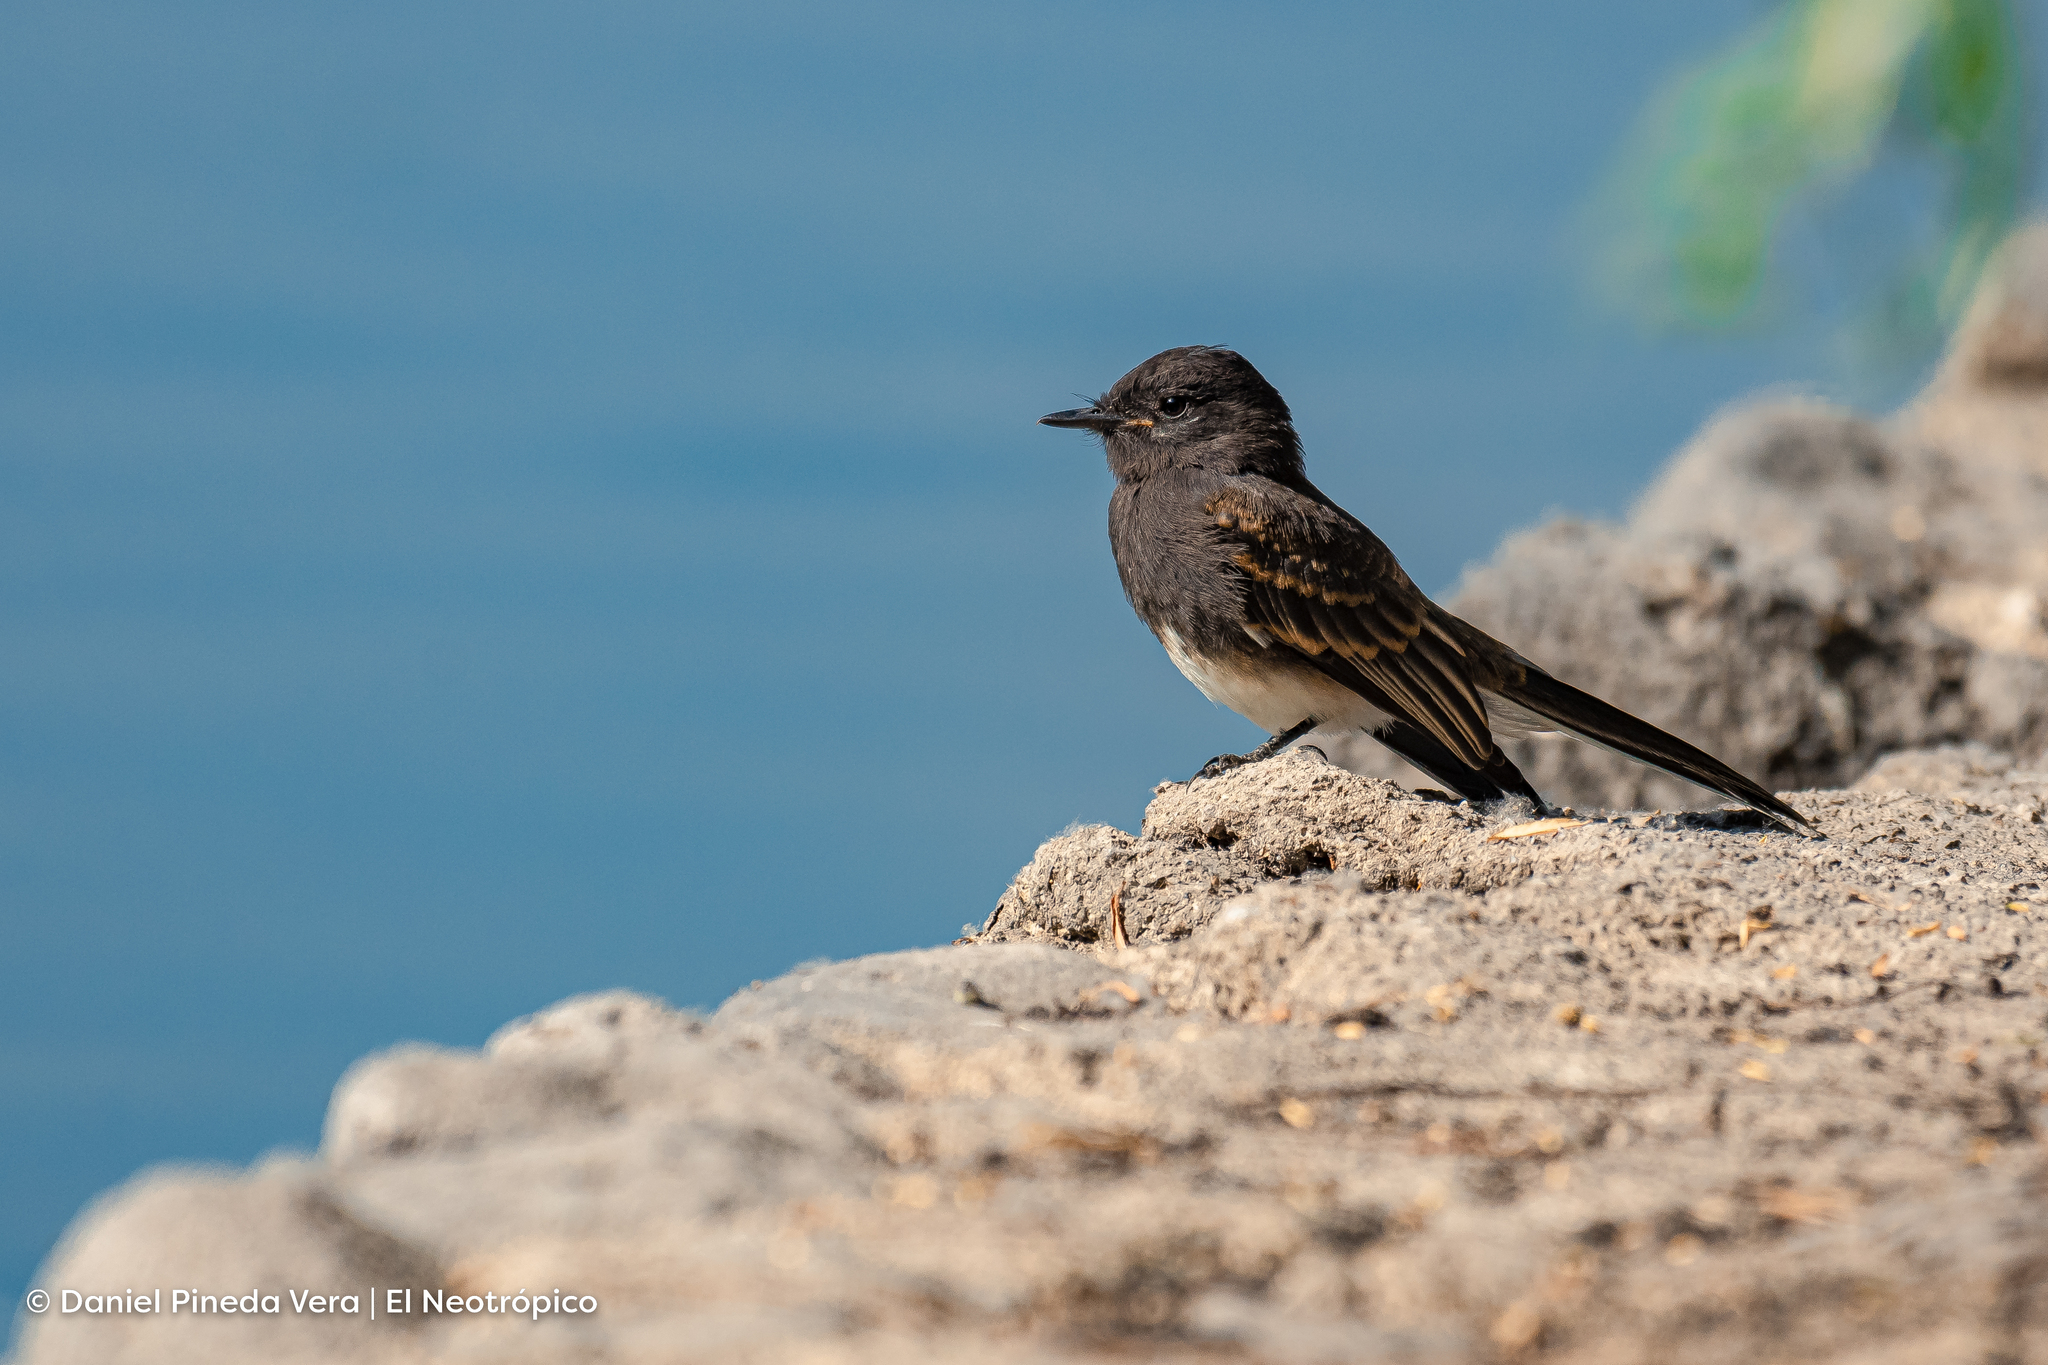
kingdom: Animalia
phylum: Chordata
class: Aves
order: Passeriformes
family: Tyrannidae
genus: Sayornis
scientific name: Sayornis nigricans
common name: Black phoebe
